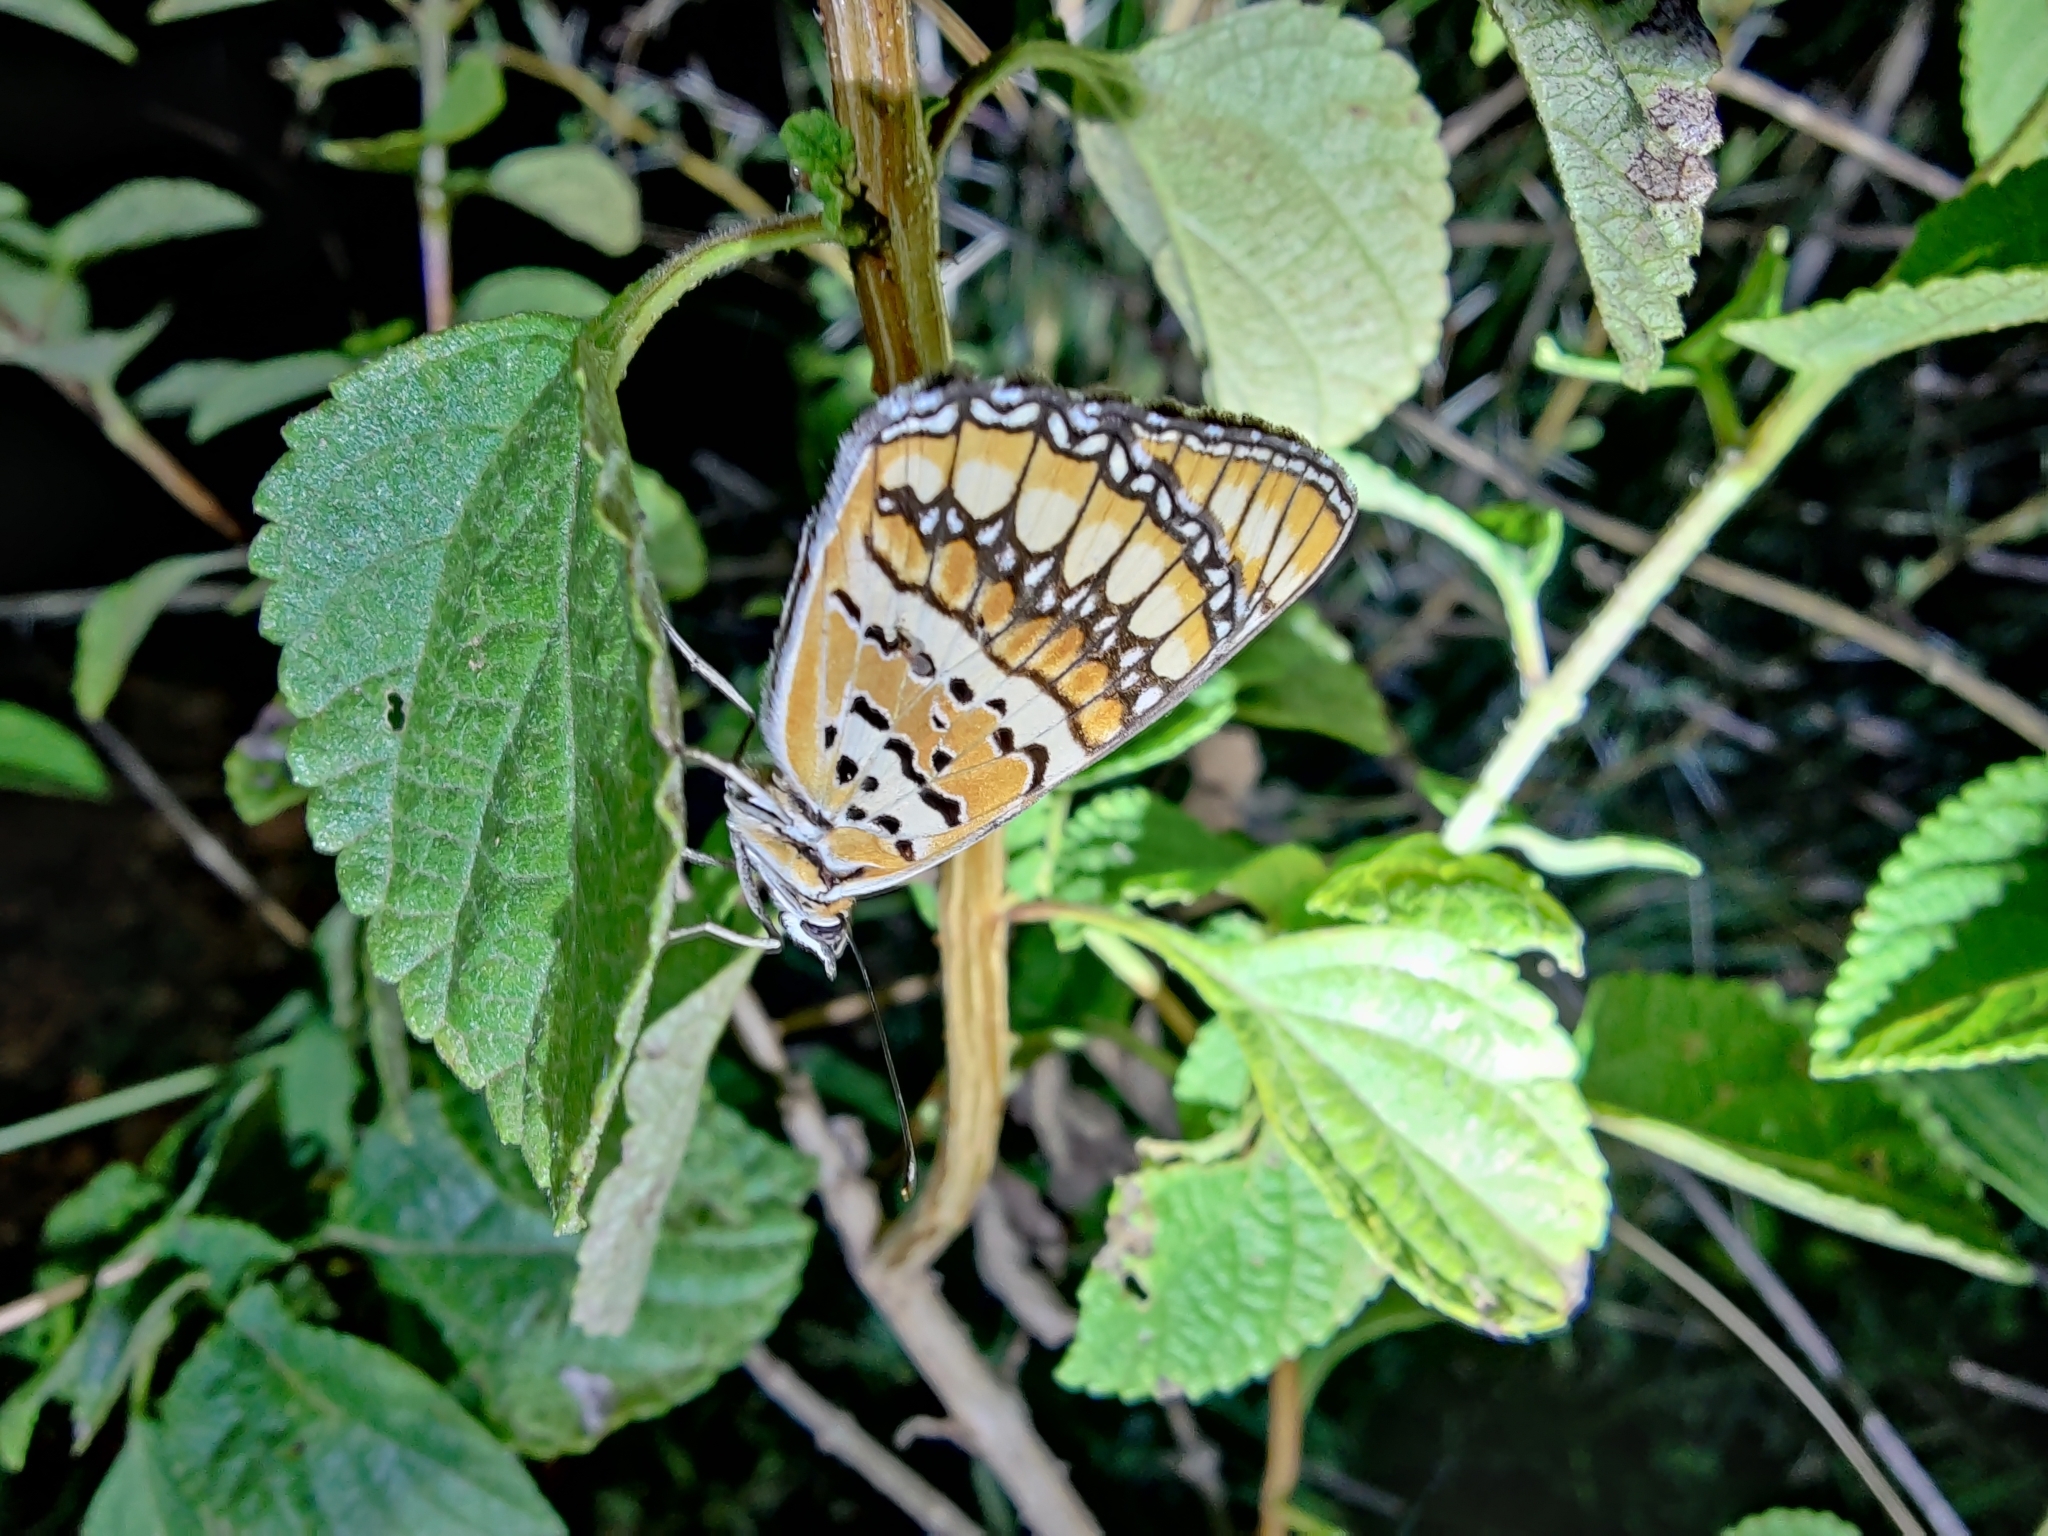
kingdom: Animalia
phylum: Arthropoda
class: Insecta
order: Lepidoptera
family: Nymphalidae
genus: Byblia
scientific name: Byblia ilithyia
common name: Spotted joker
